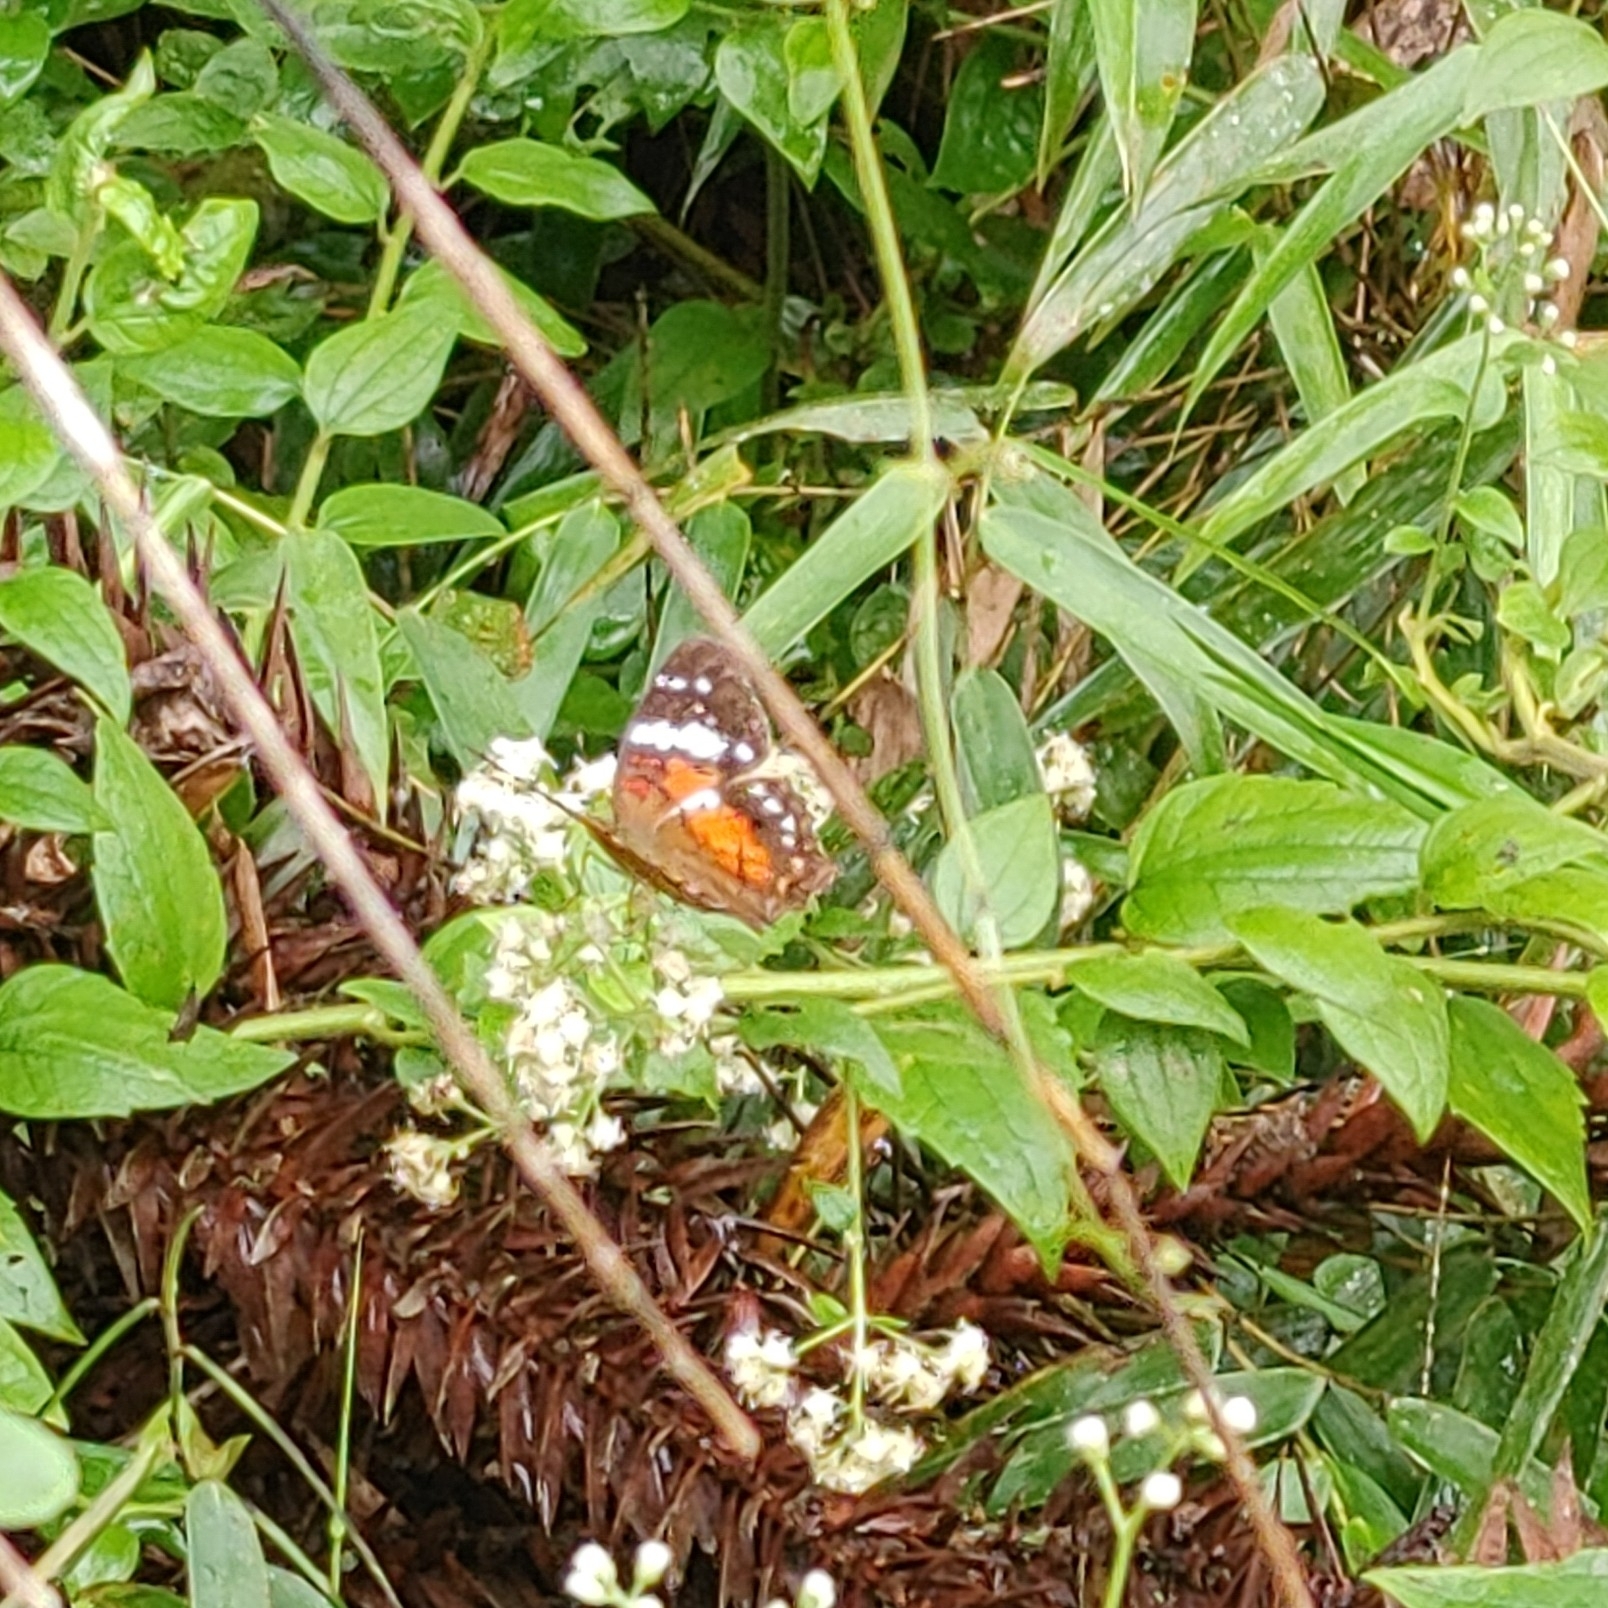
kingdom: Animalia
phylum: Arthropoda
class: Insecta
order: Lepidoptera
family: Nymphalidae
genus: Anartia
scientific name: Anartia amathea
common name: Red peacock
